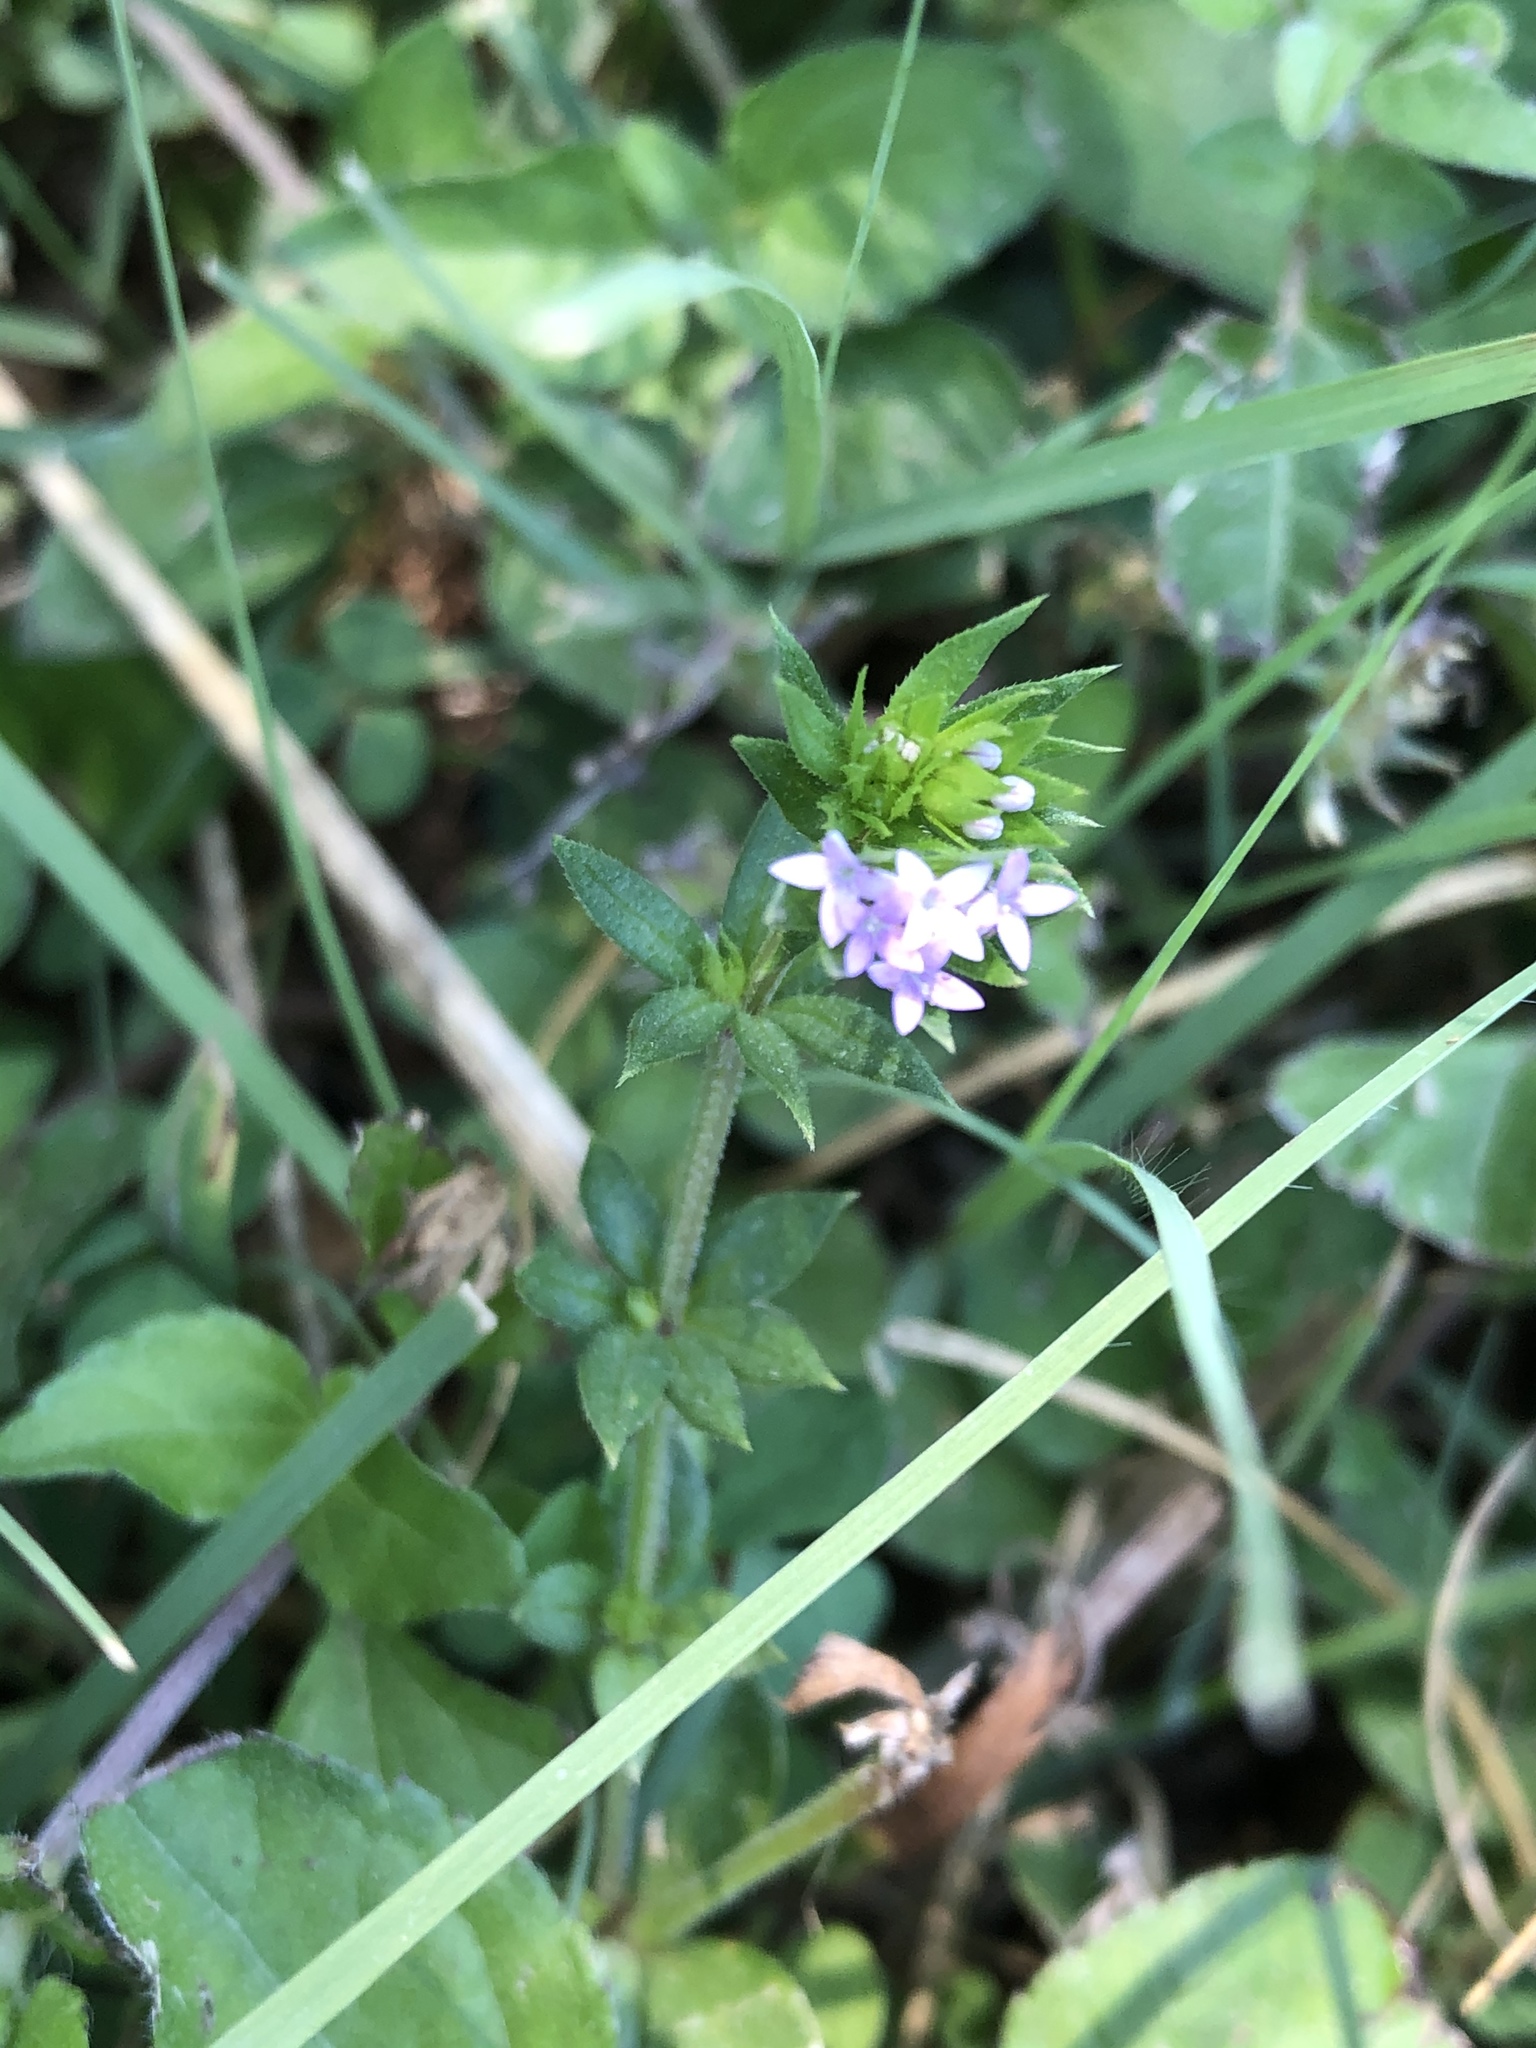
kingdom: Plantae
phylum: Tracheophyta
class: Magnoliopsida
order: Gentianales
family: Rubiaceae
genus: Sherardia
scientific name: Sherardia arvensis
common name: Field madder
